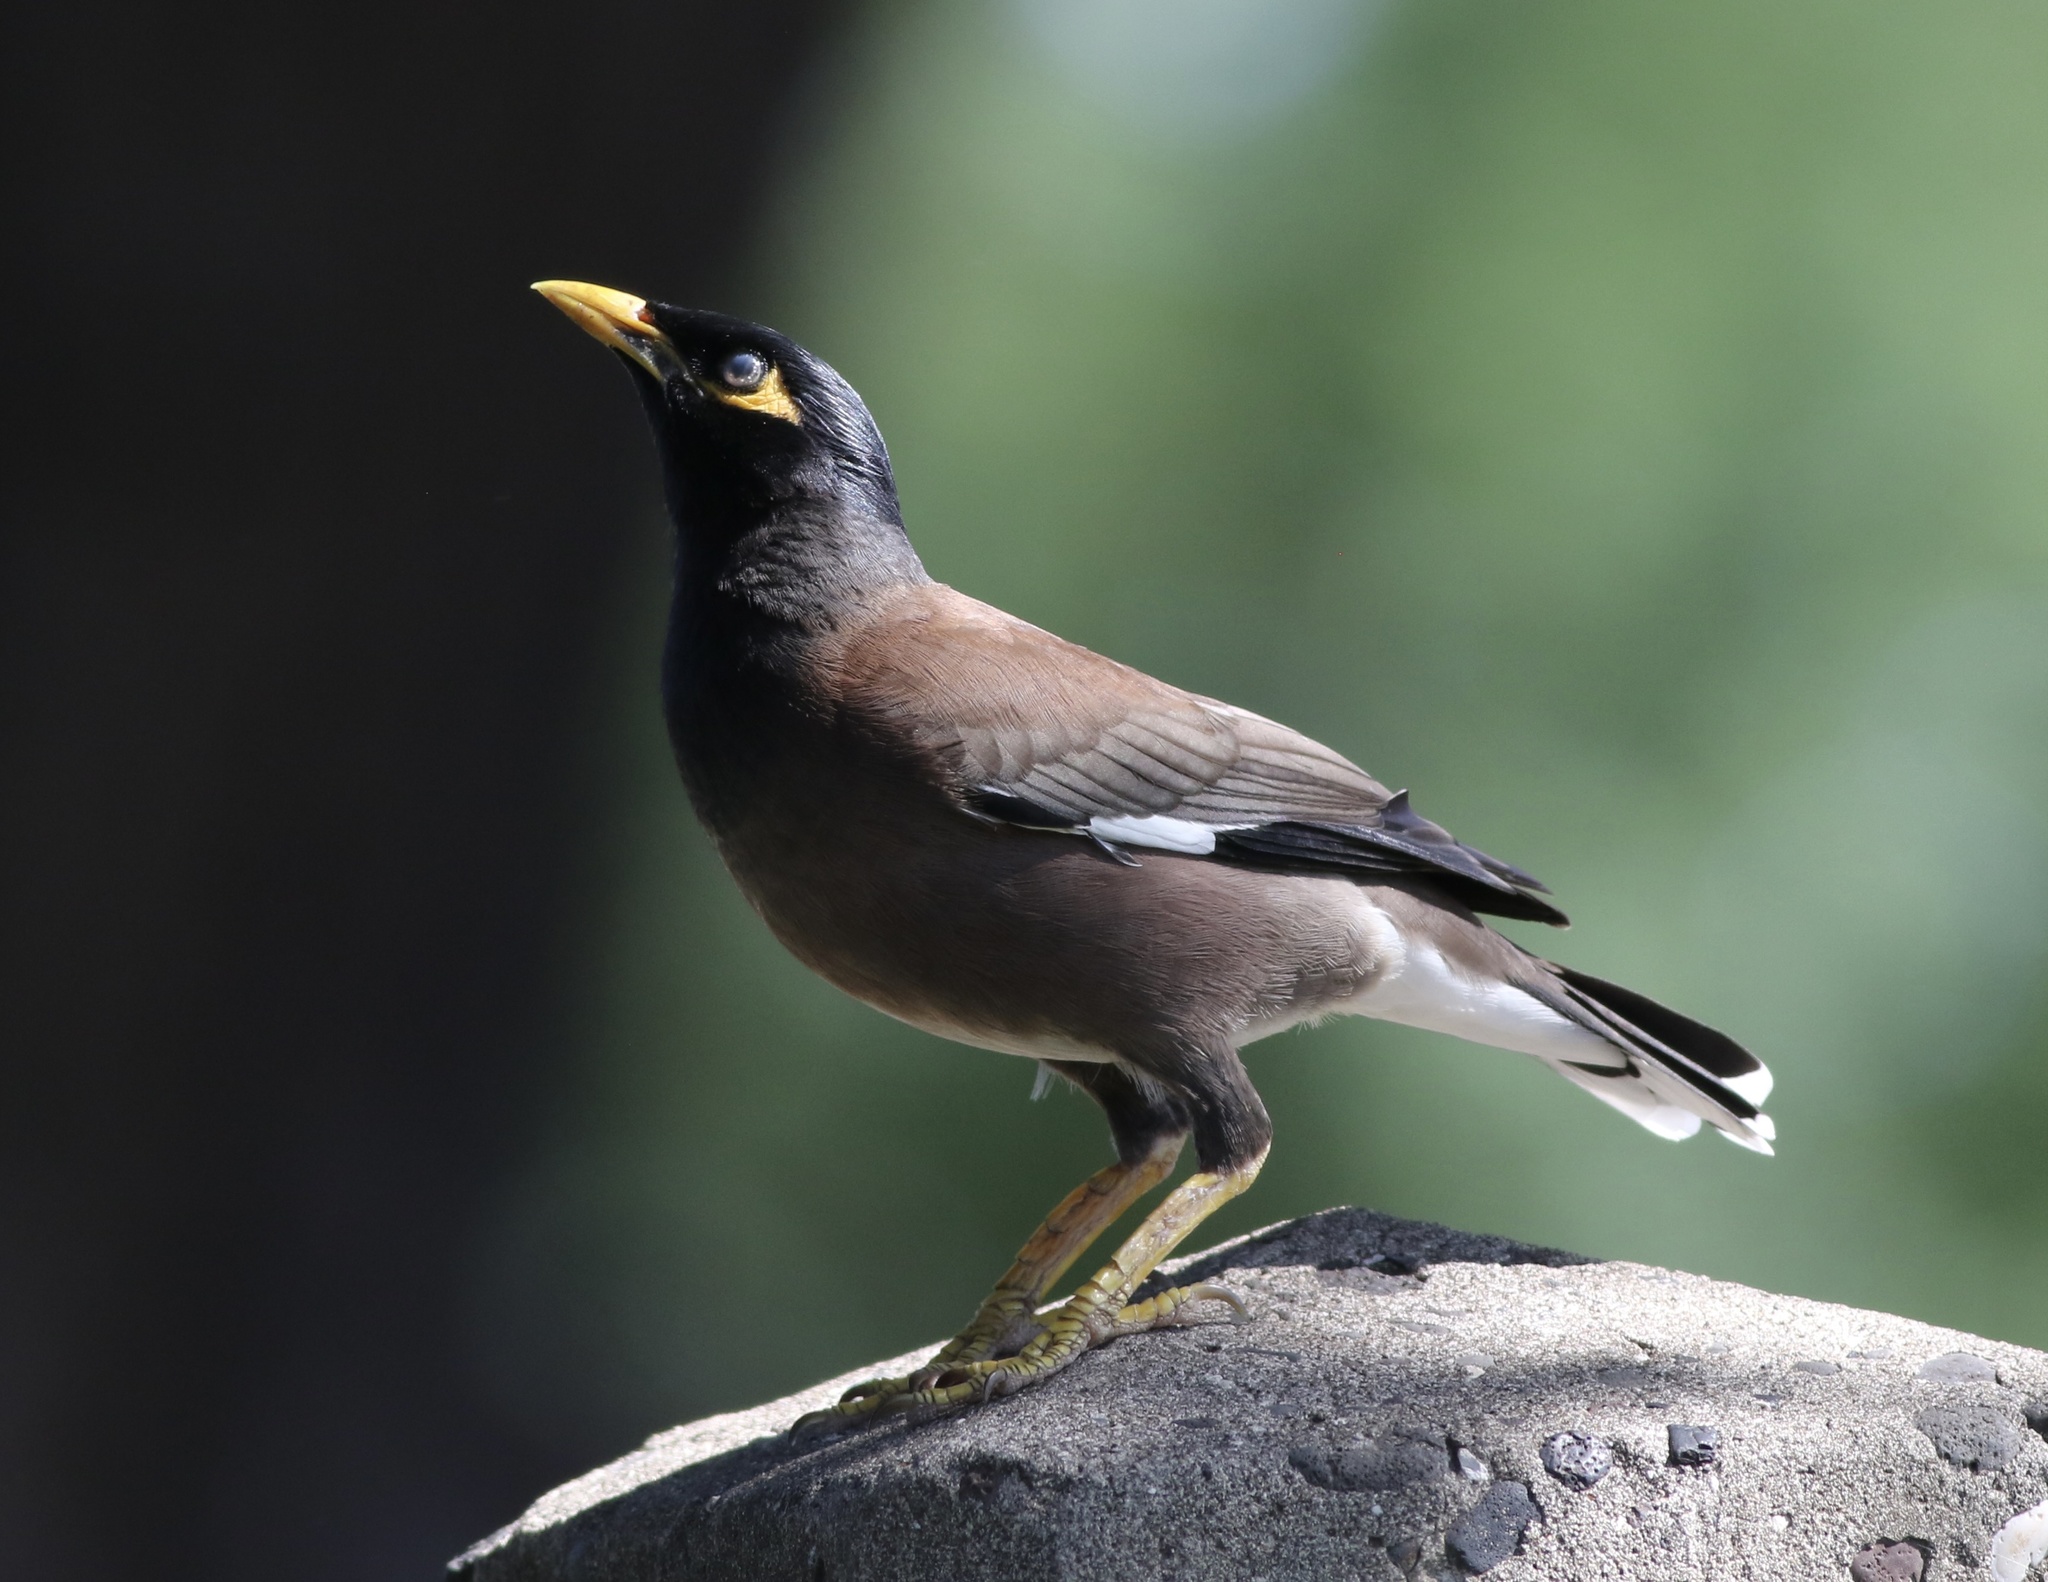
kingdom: Animalia
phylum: Chordata
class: Aves
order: Passeriformes
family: Sturnidae
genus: Acridotheres
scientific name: Acridotheres tristis
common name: Common myna
